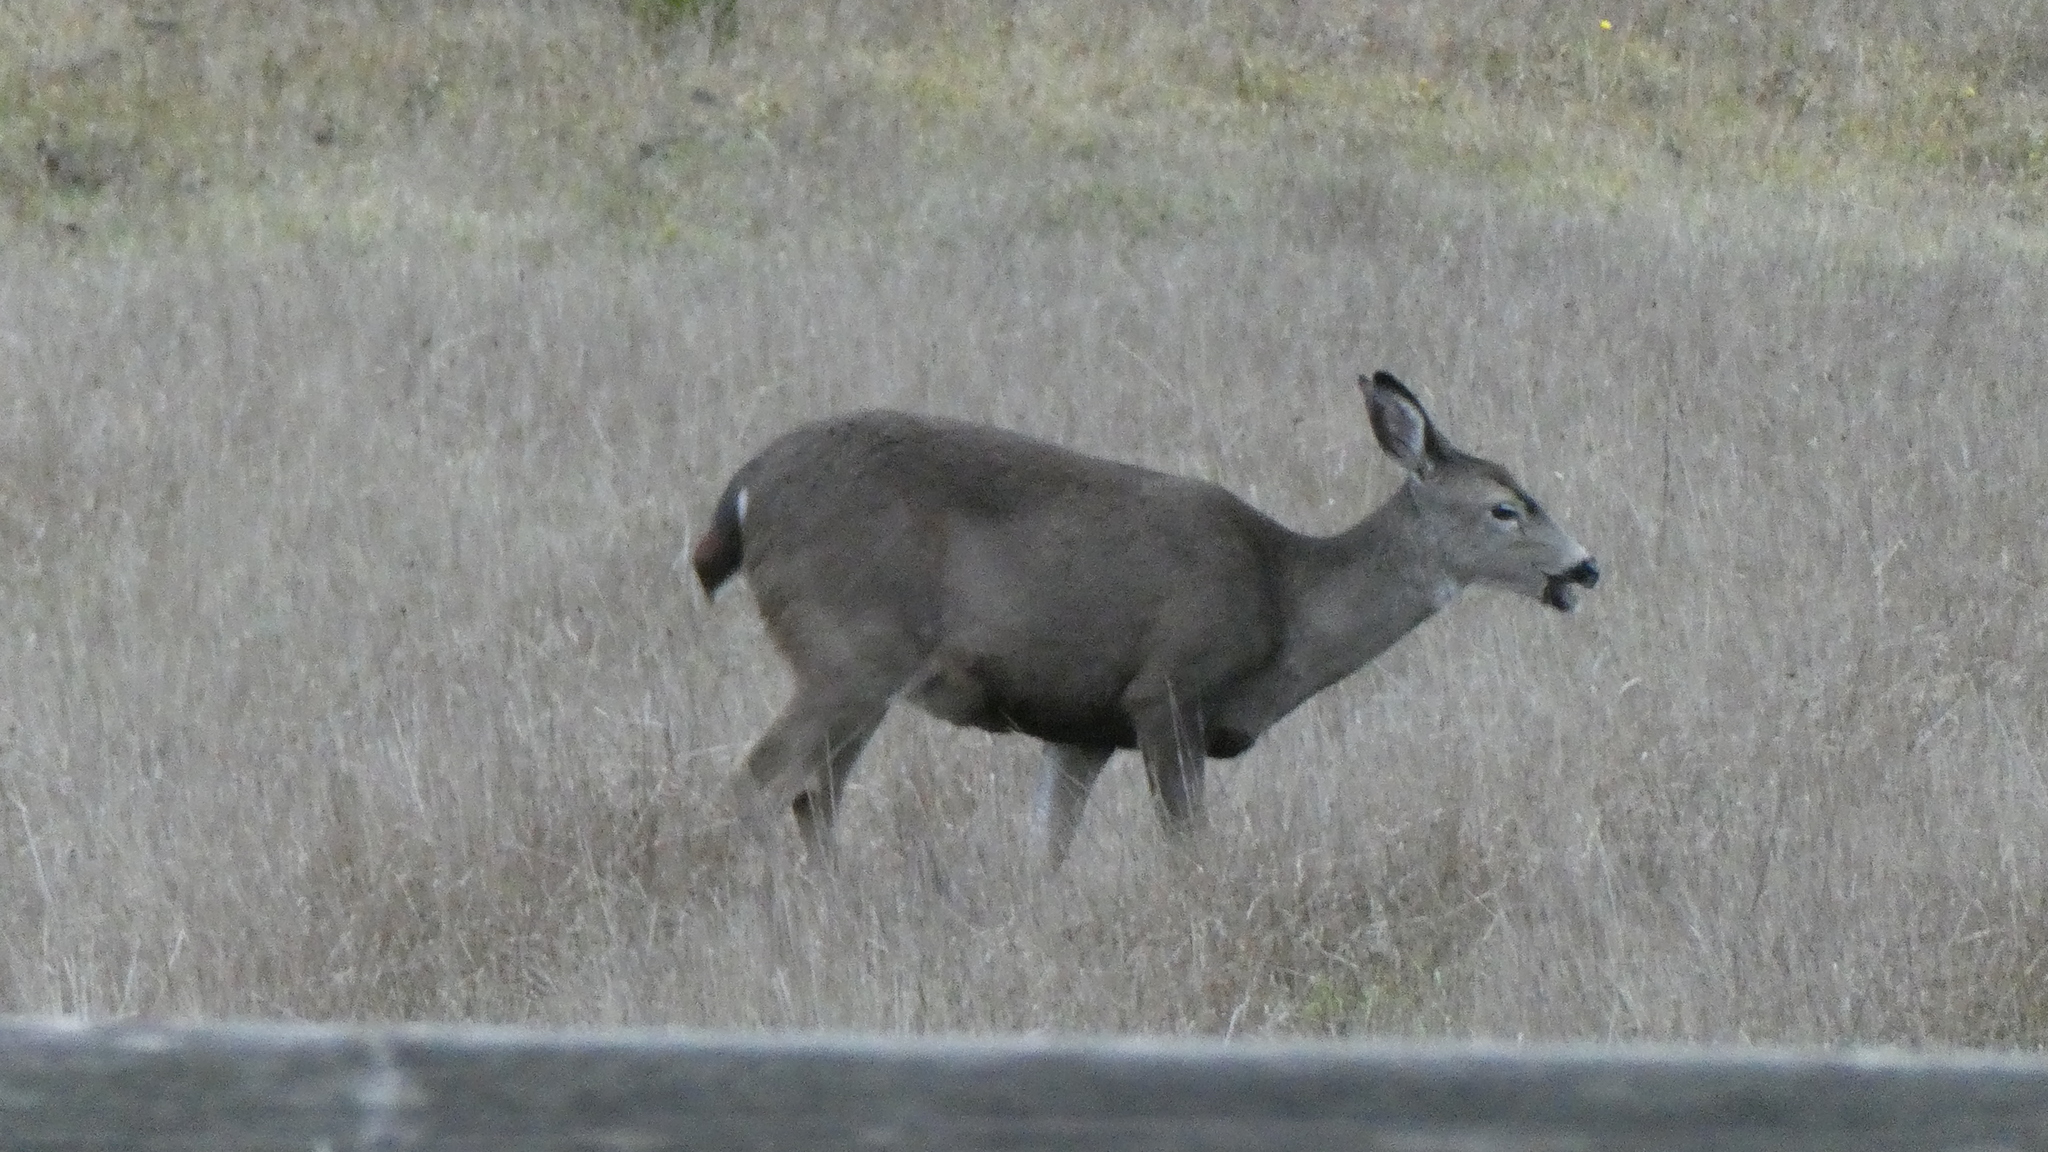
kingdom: Animalia
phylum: Chordata
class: Mammalia
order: Artiodactyla
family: Cervidae
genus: Odocoileus
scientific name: Odocoileus hemionus
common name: Mule deer
